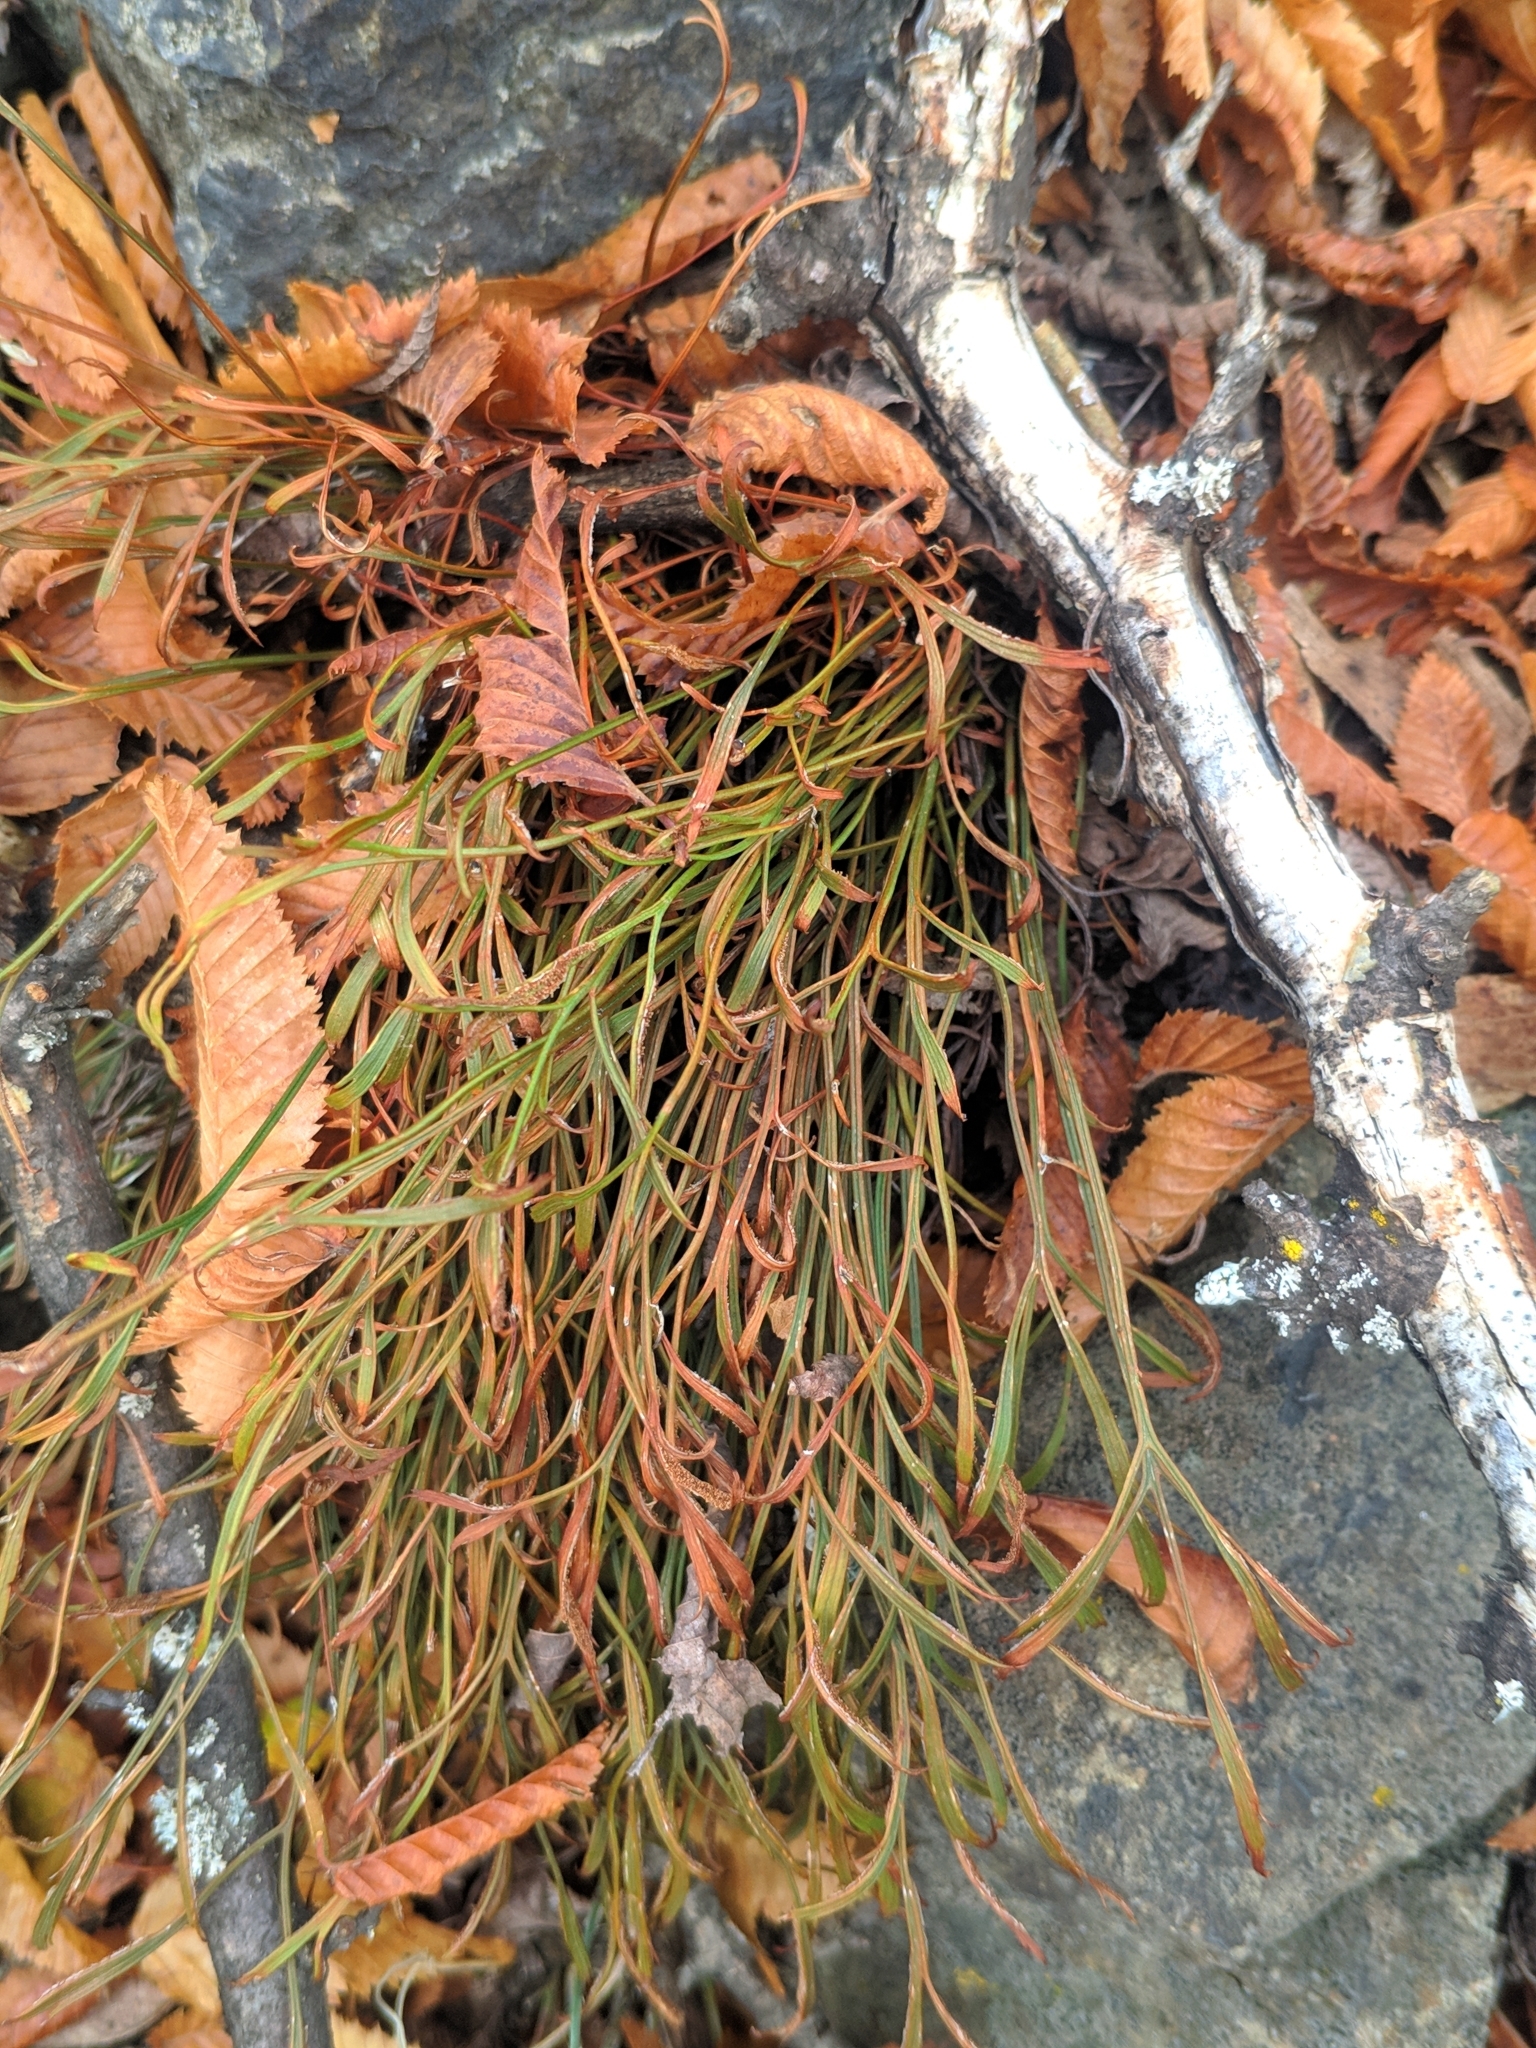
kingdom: Plantae
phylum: Tracheophyta
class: Polypodiopsida
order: Polypodiales
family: Aspleniaceae
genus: Asplenium
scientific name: Asplenium septentrionale
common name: Forked spleenwort
